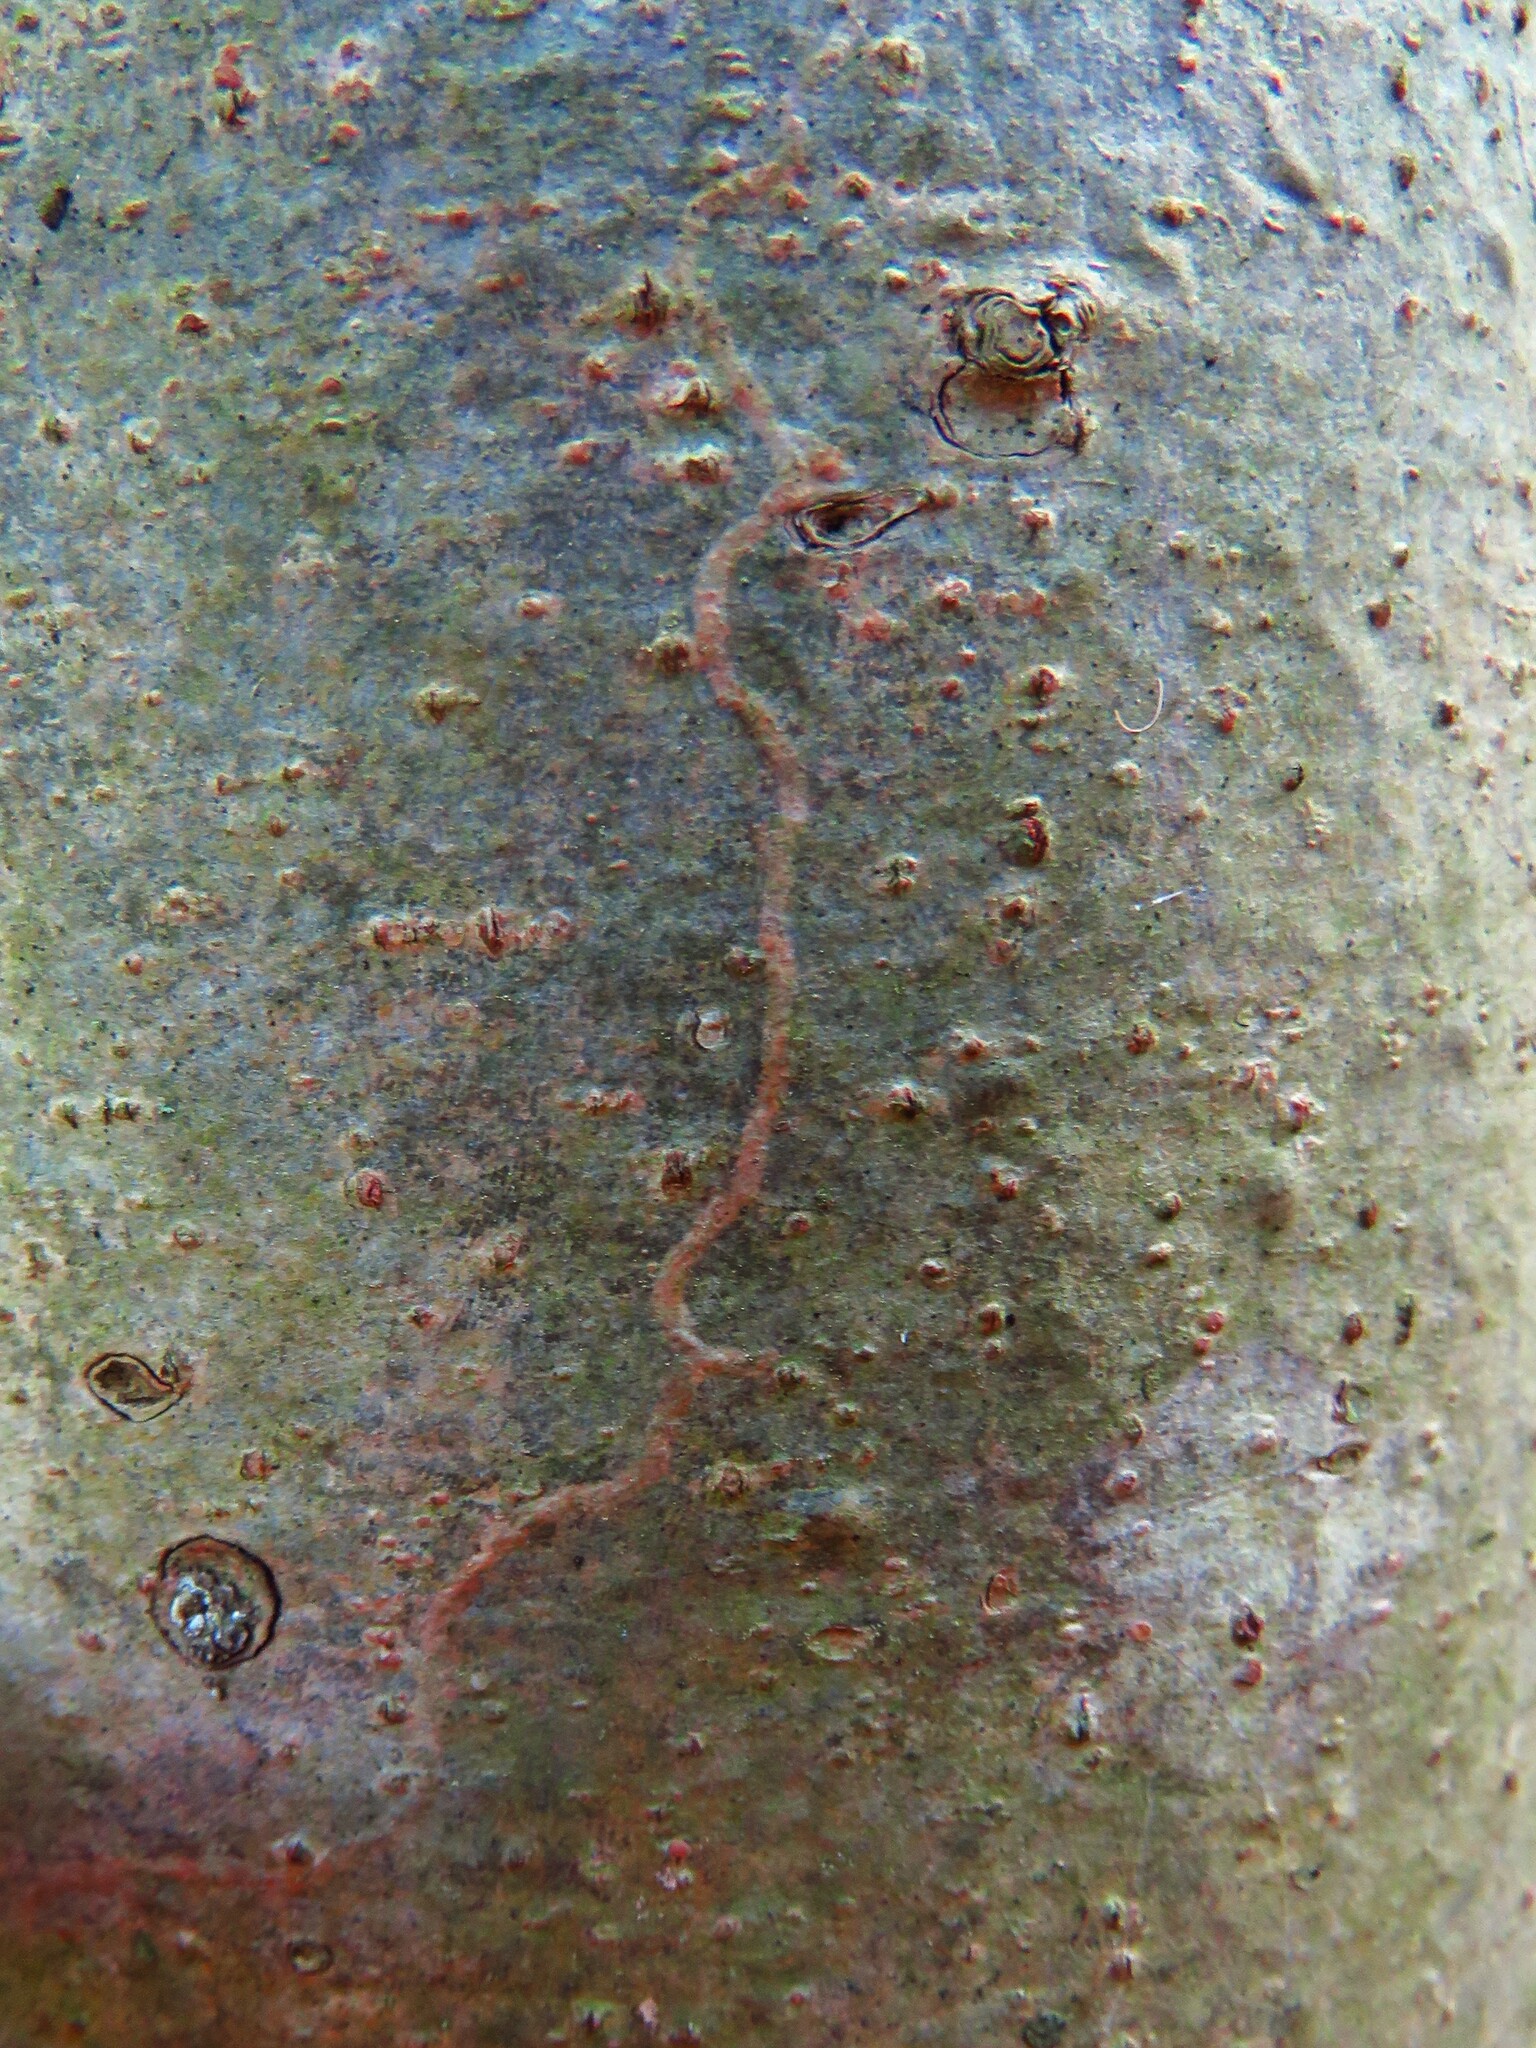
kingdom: Animalia
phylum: Arthropoda
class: Insecta
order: Lepidoptera
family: Gracillariidae
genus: Marmara
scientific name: Marmara fasciella
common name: White pine barkminer moth
